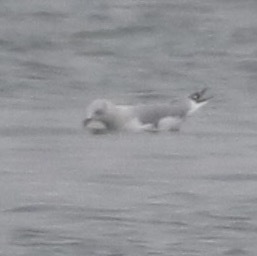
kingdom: Animalia
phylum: Chordata
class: Aves
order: Charadriiformes
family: Laridae
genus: Larus
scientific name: Larus argentatus
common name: Herring gull
